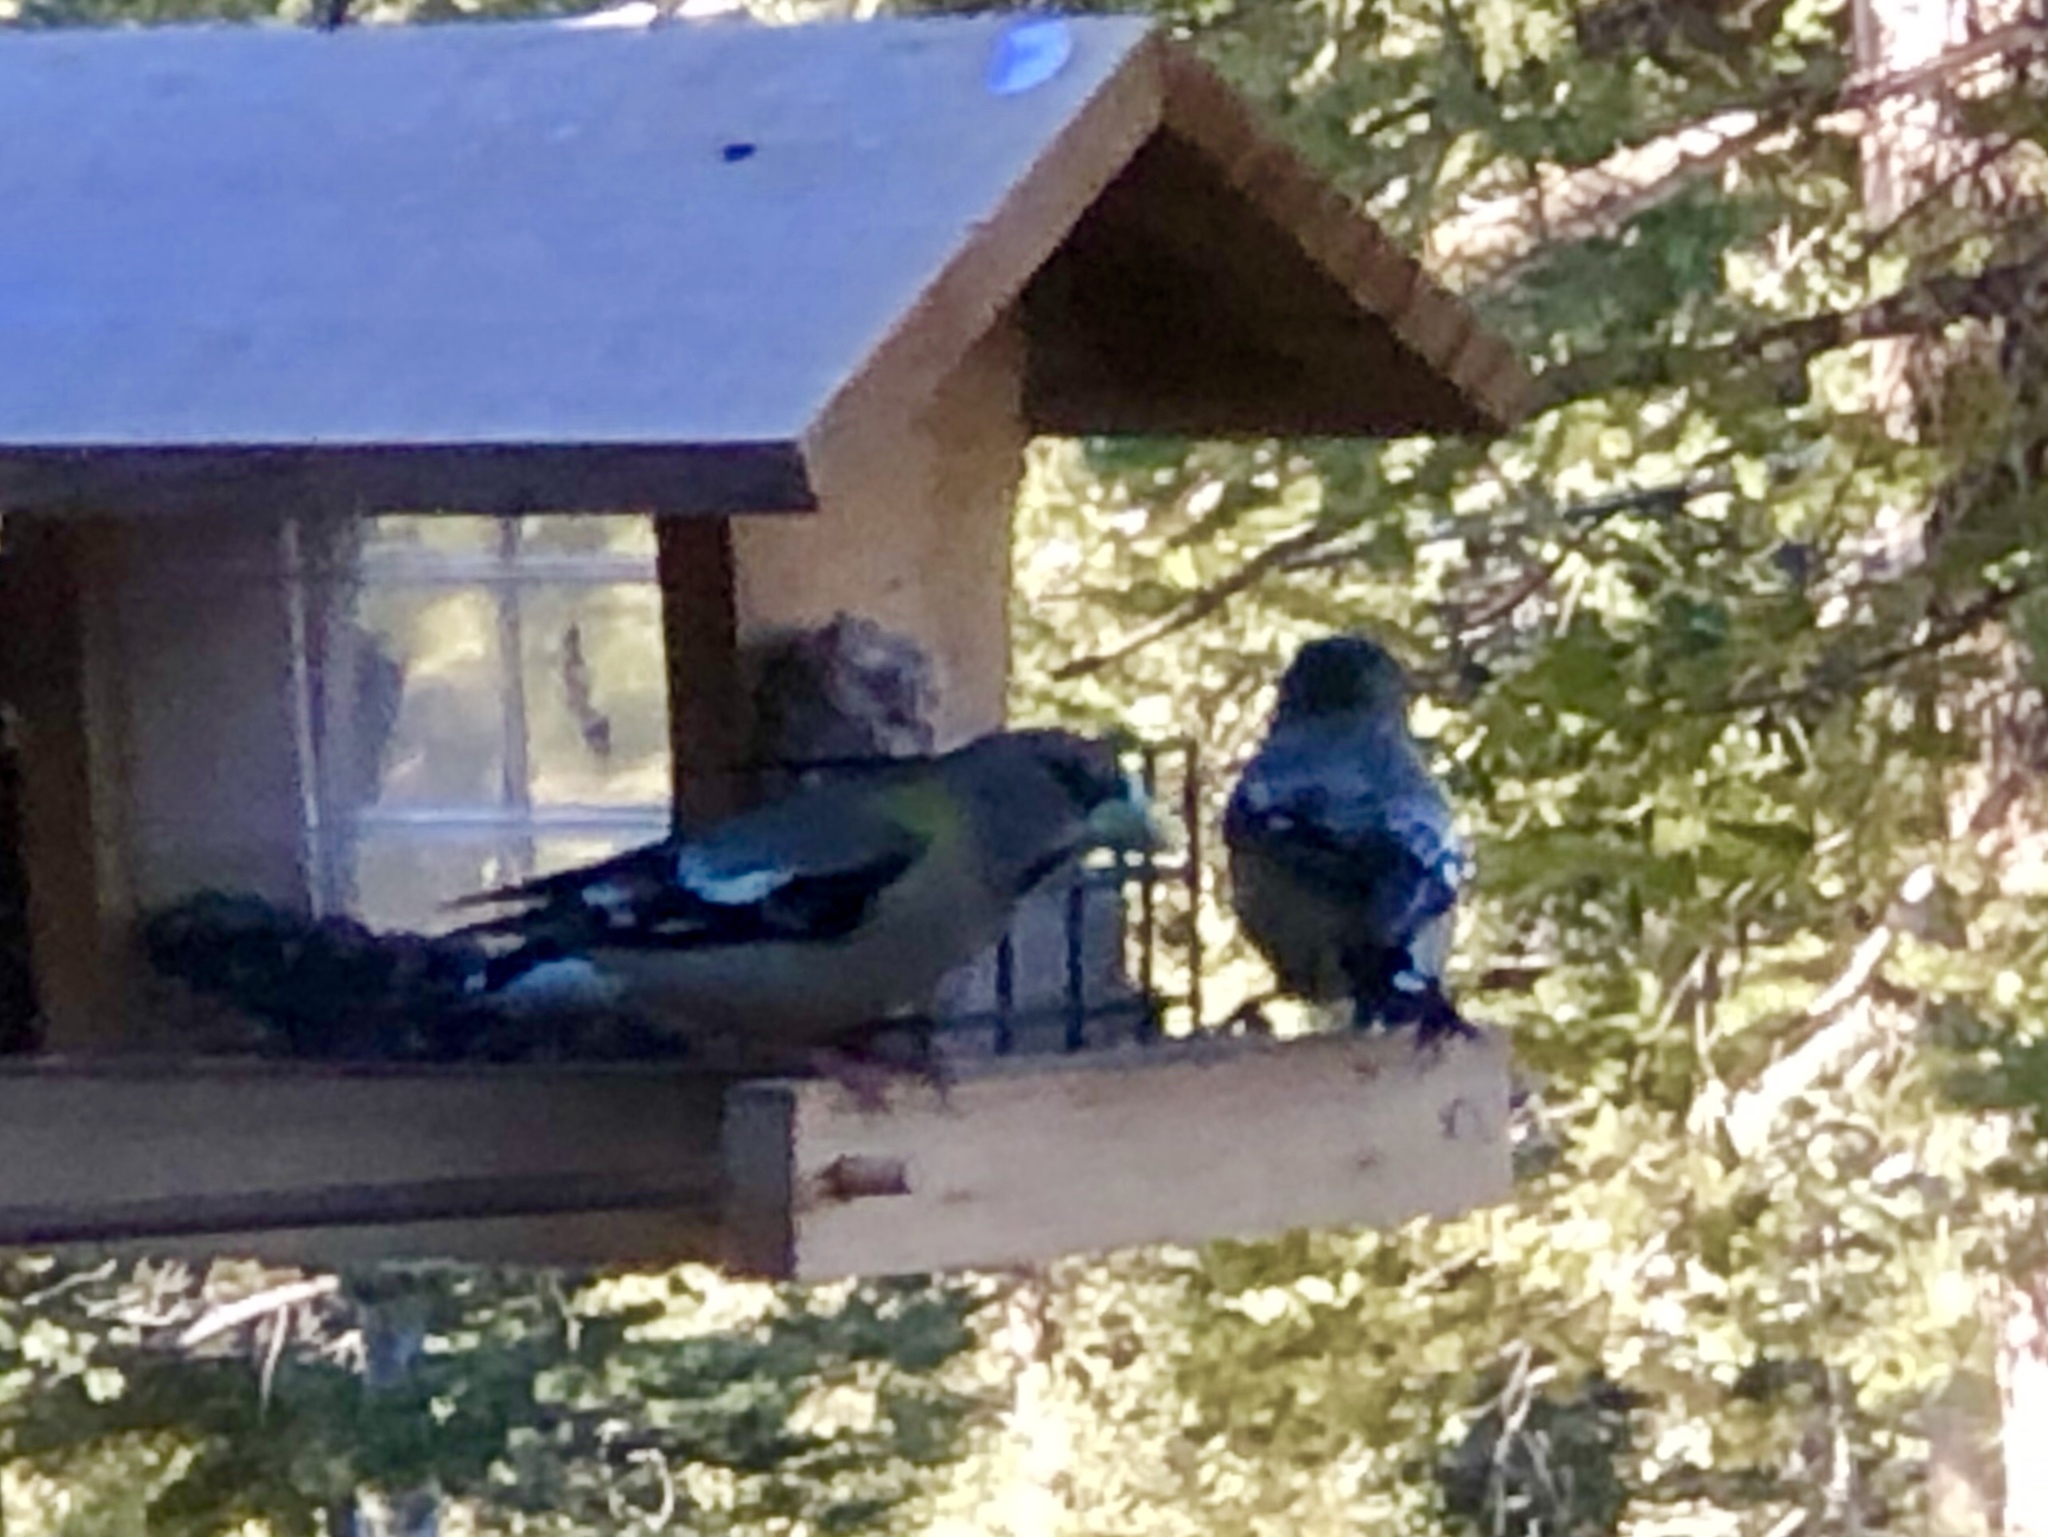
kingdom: Animalia
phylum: Chordata
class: Aves
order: Passeriformes
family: Fringillidae
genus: Hesperiphona
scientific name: Hesperiphona vespertina
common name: Evening grosbeak
